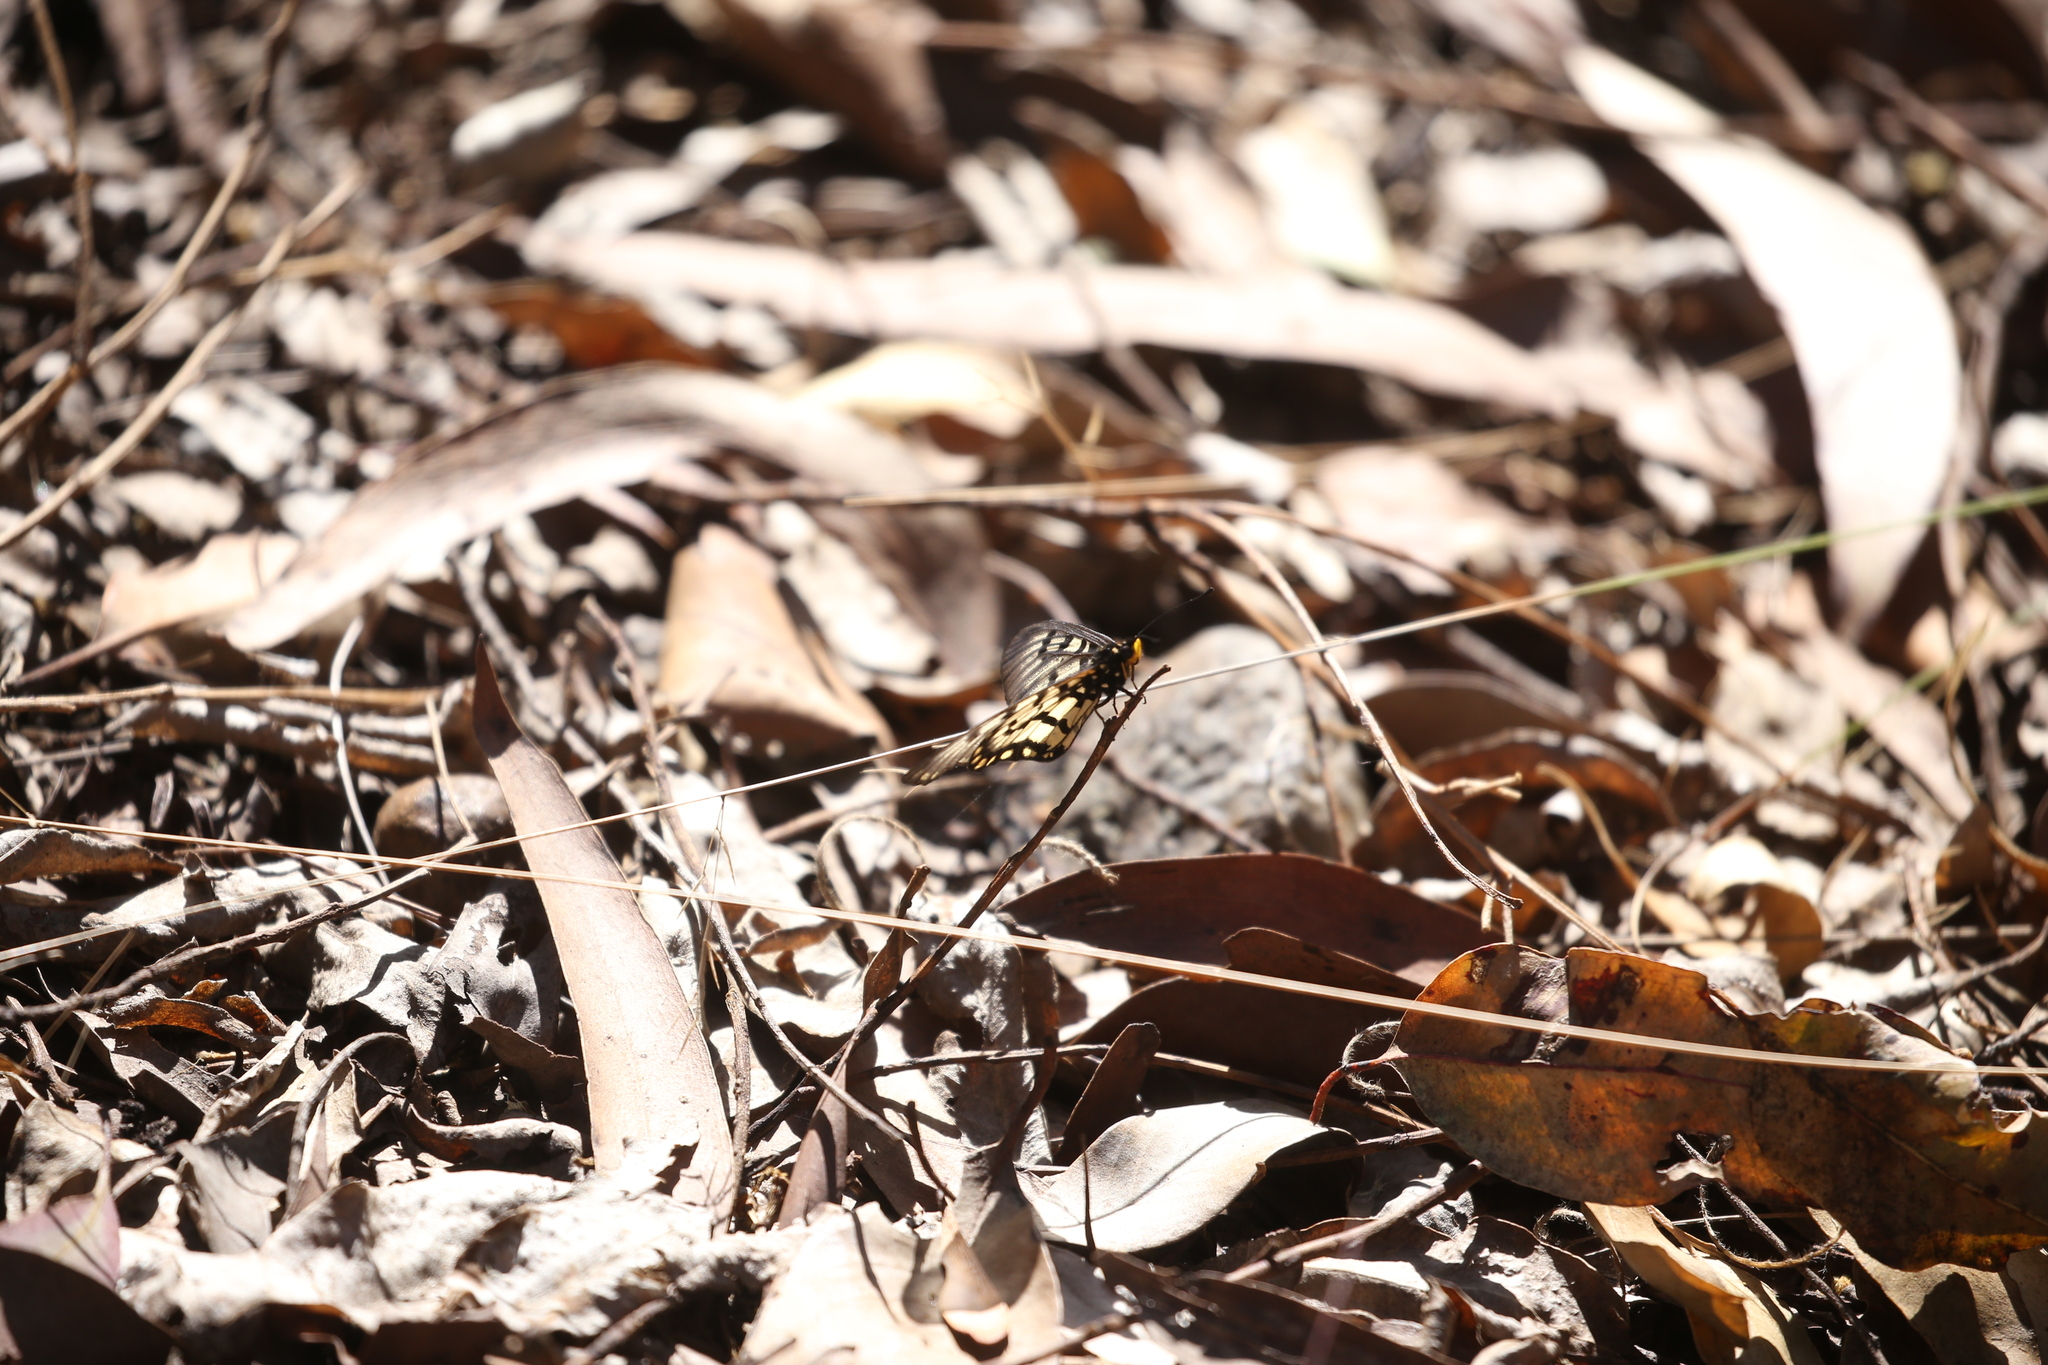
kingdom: Animalia
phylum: Arthropoda
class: Insecta
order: Lepidoptera
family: Nymphalidae
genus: Acraea
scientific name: Acraea andromacha
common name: Glasswing
